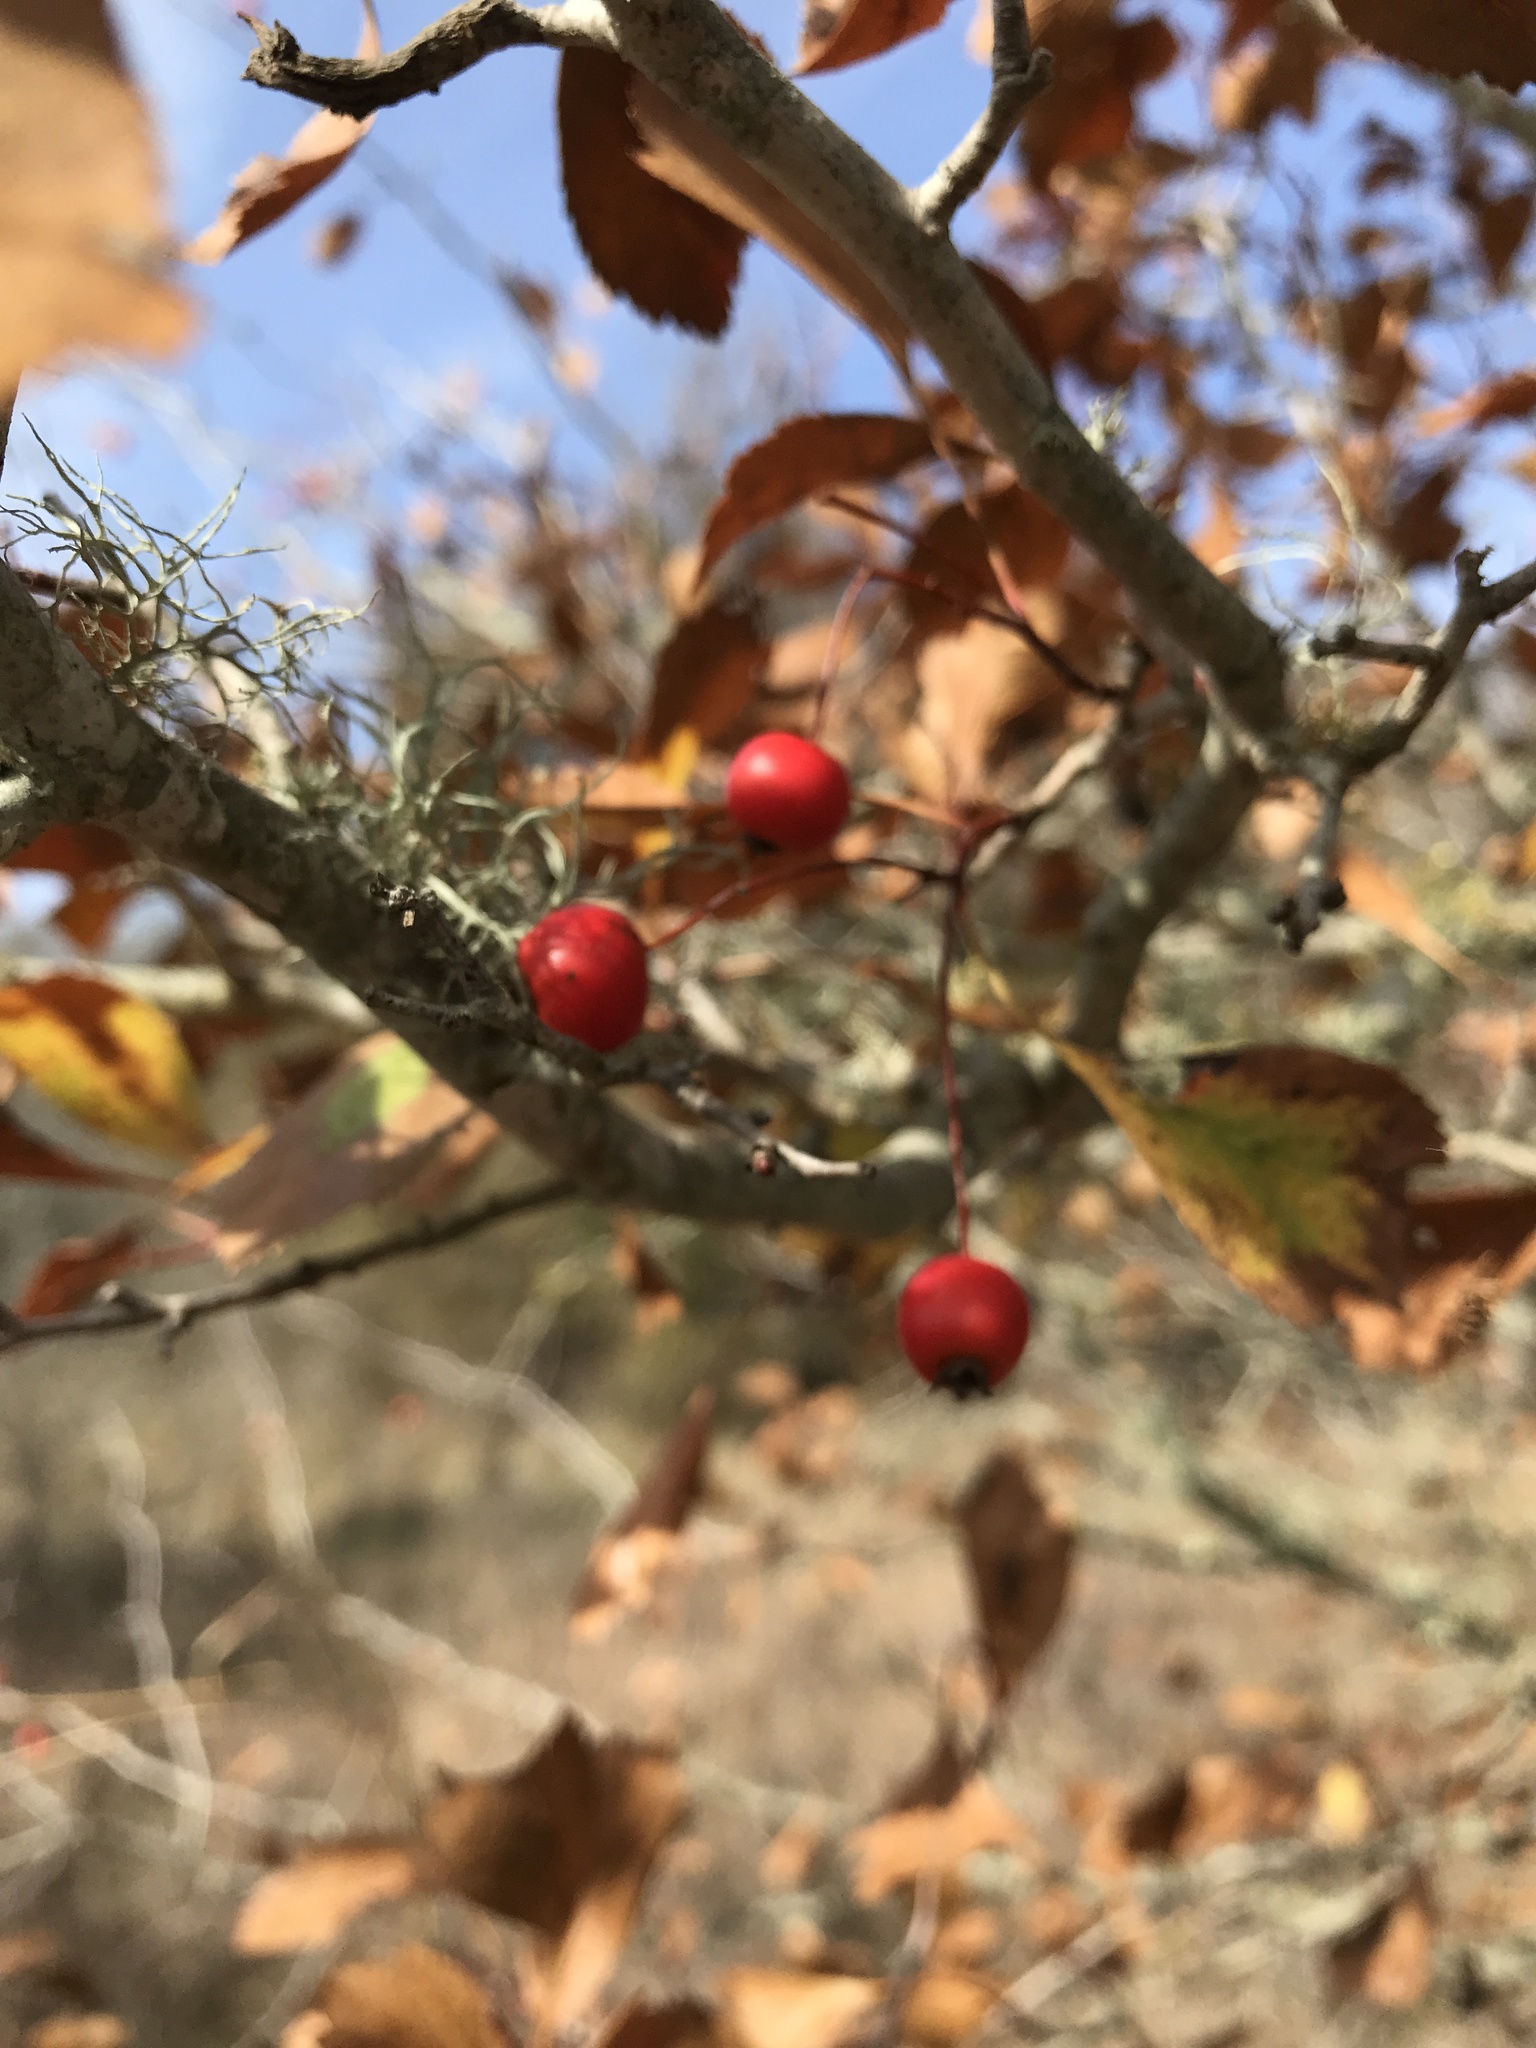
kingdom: Plantae
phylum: Tracheophyta
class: Magnoliopsida
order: Rosales
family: Rosaceae
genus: Crataegus
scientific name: Crataegus viridis
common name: Southernthorn
